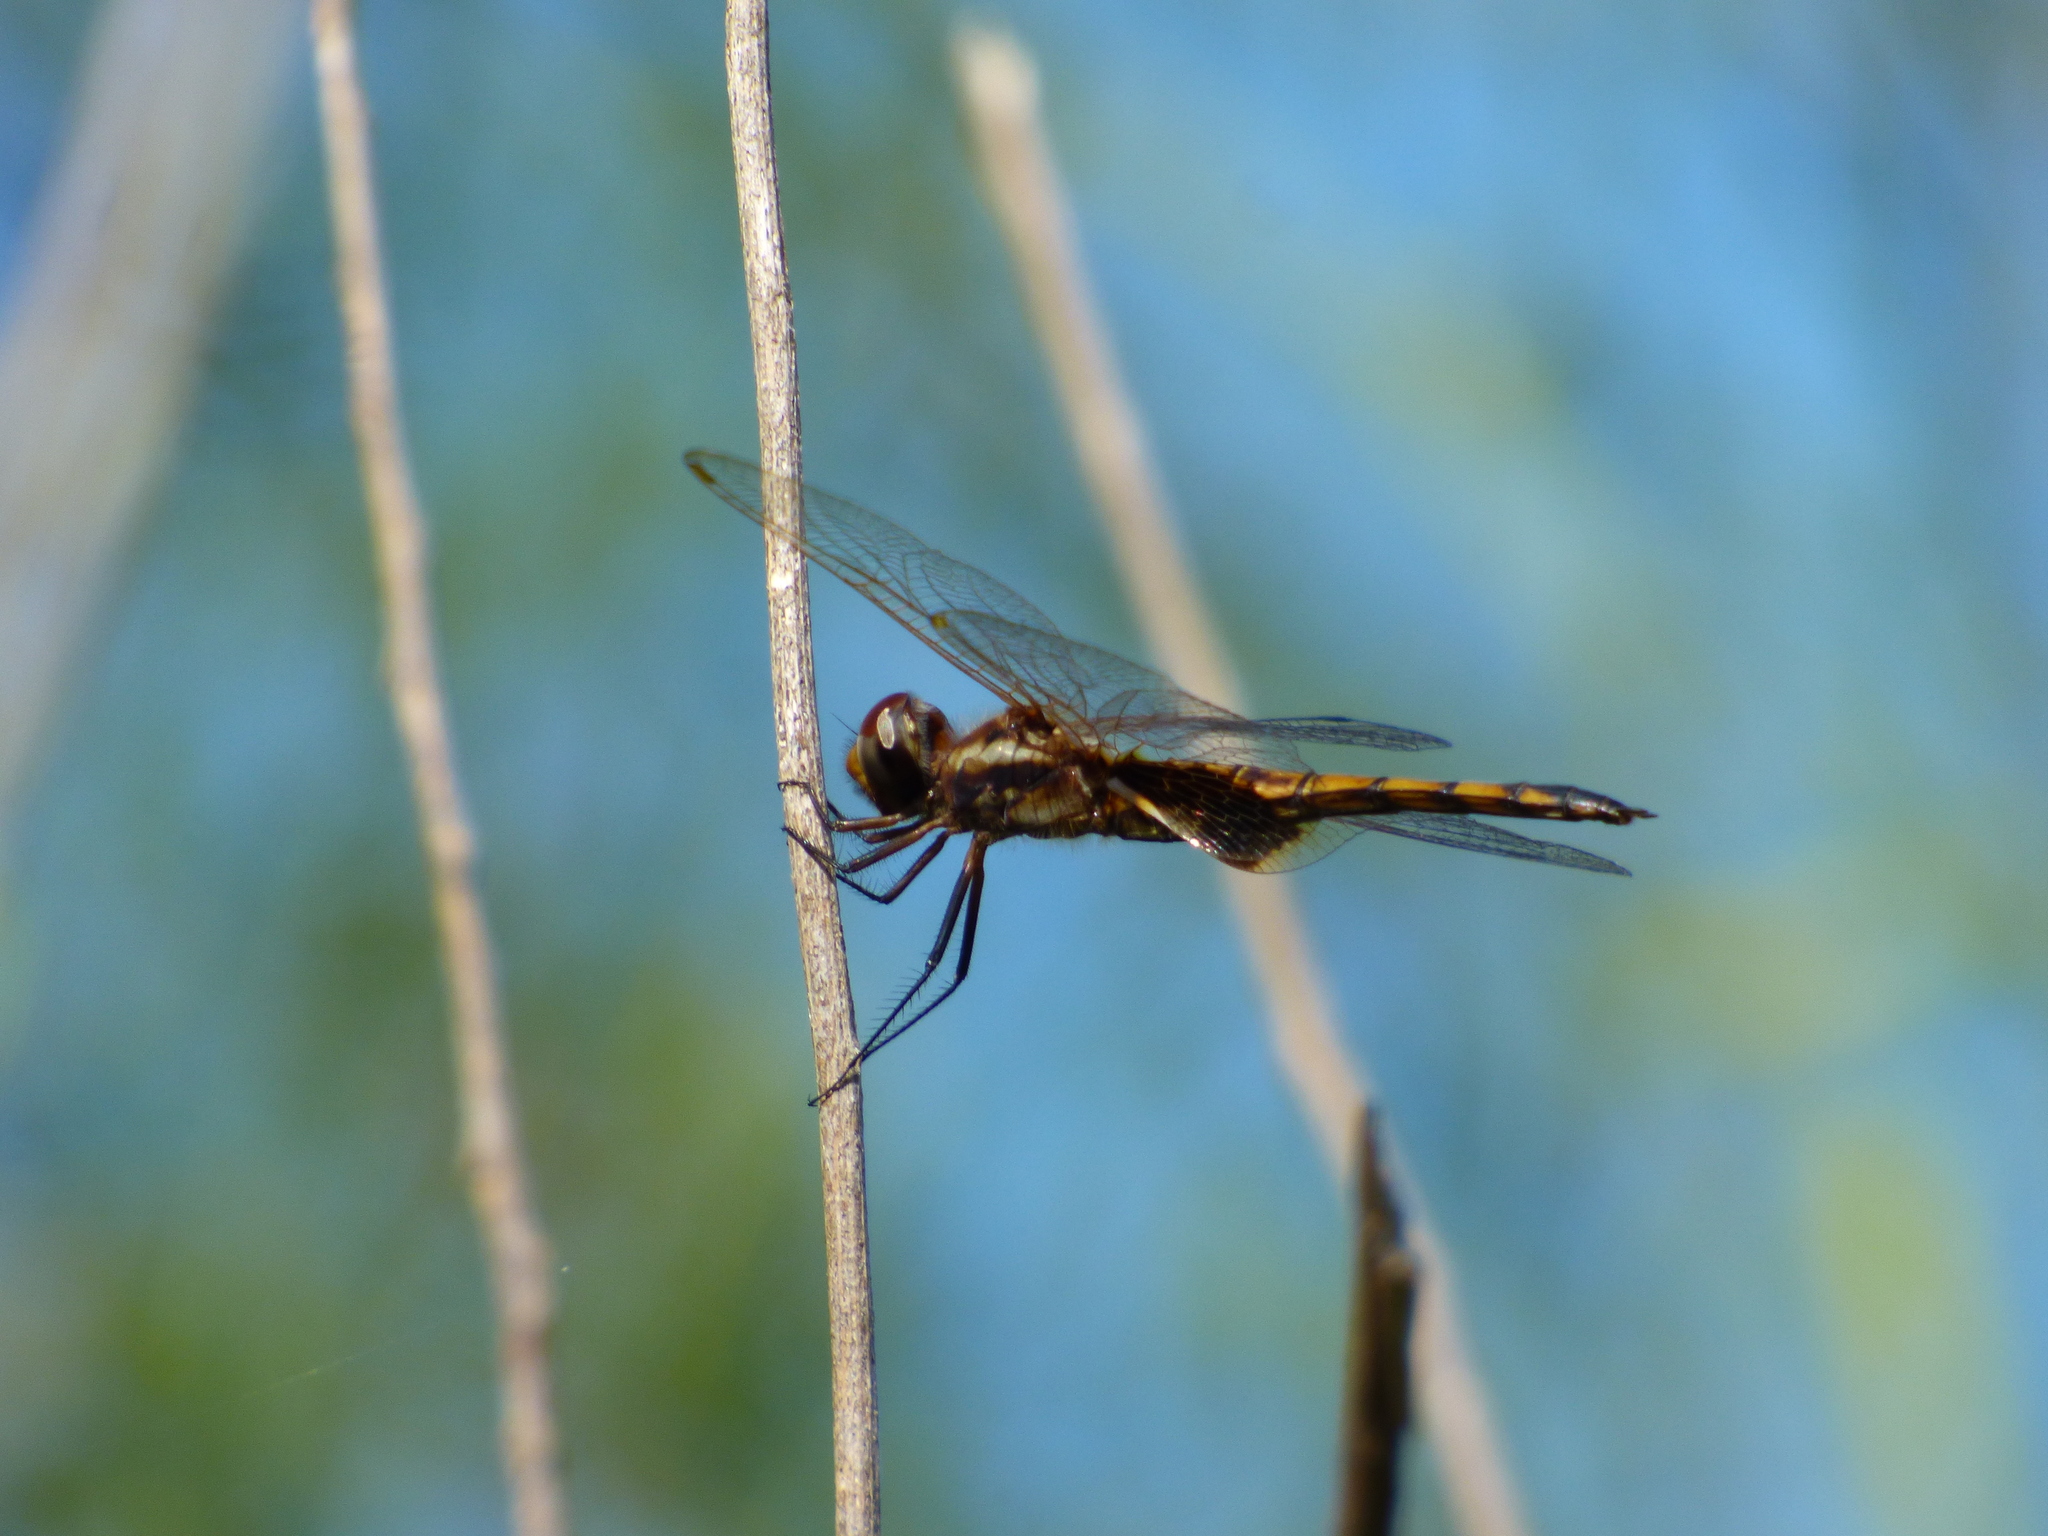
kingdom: Animalia
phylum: Arthropoda
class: Insecta
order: Odonata
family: Libellulidae
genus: Miathyria
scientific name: Miathyria marcella
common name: Hyacinth glider
